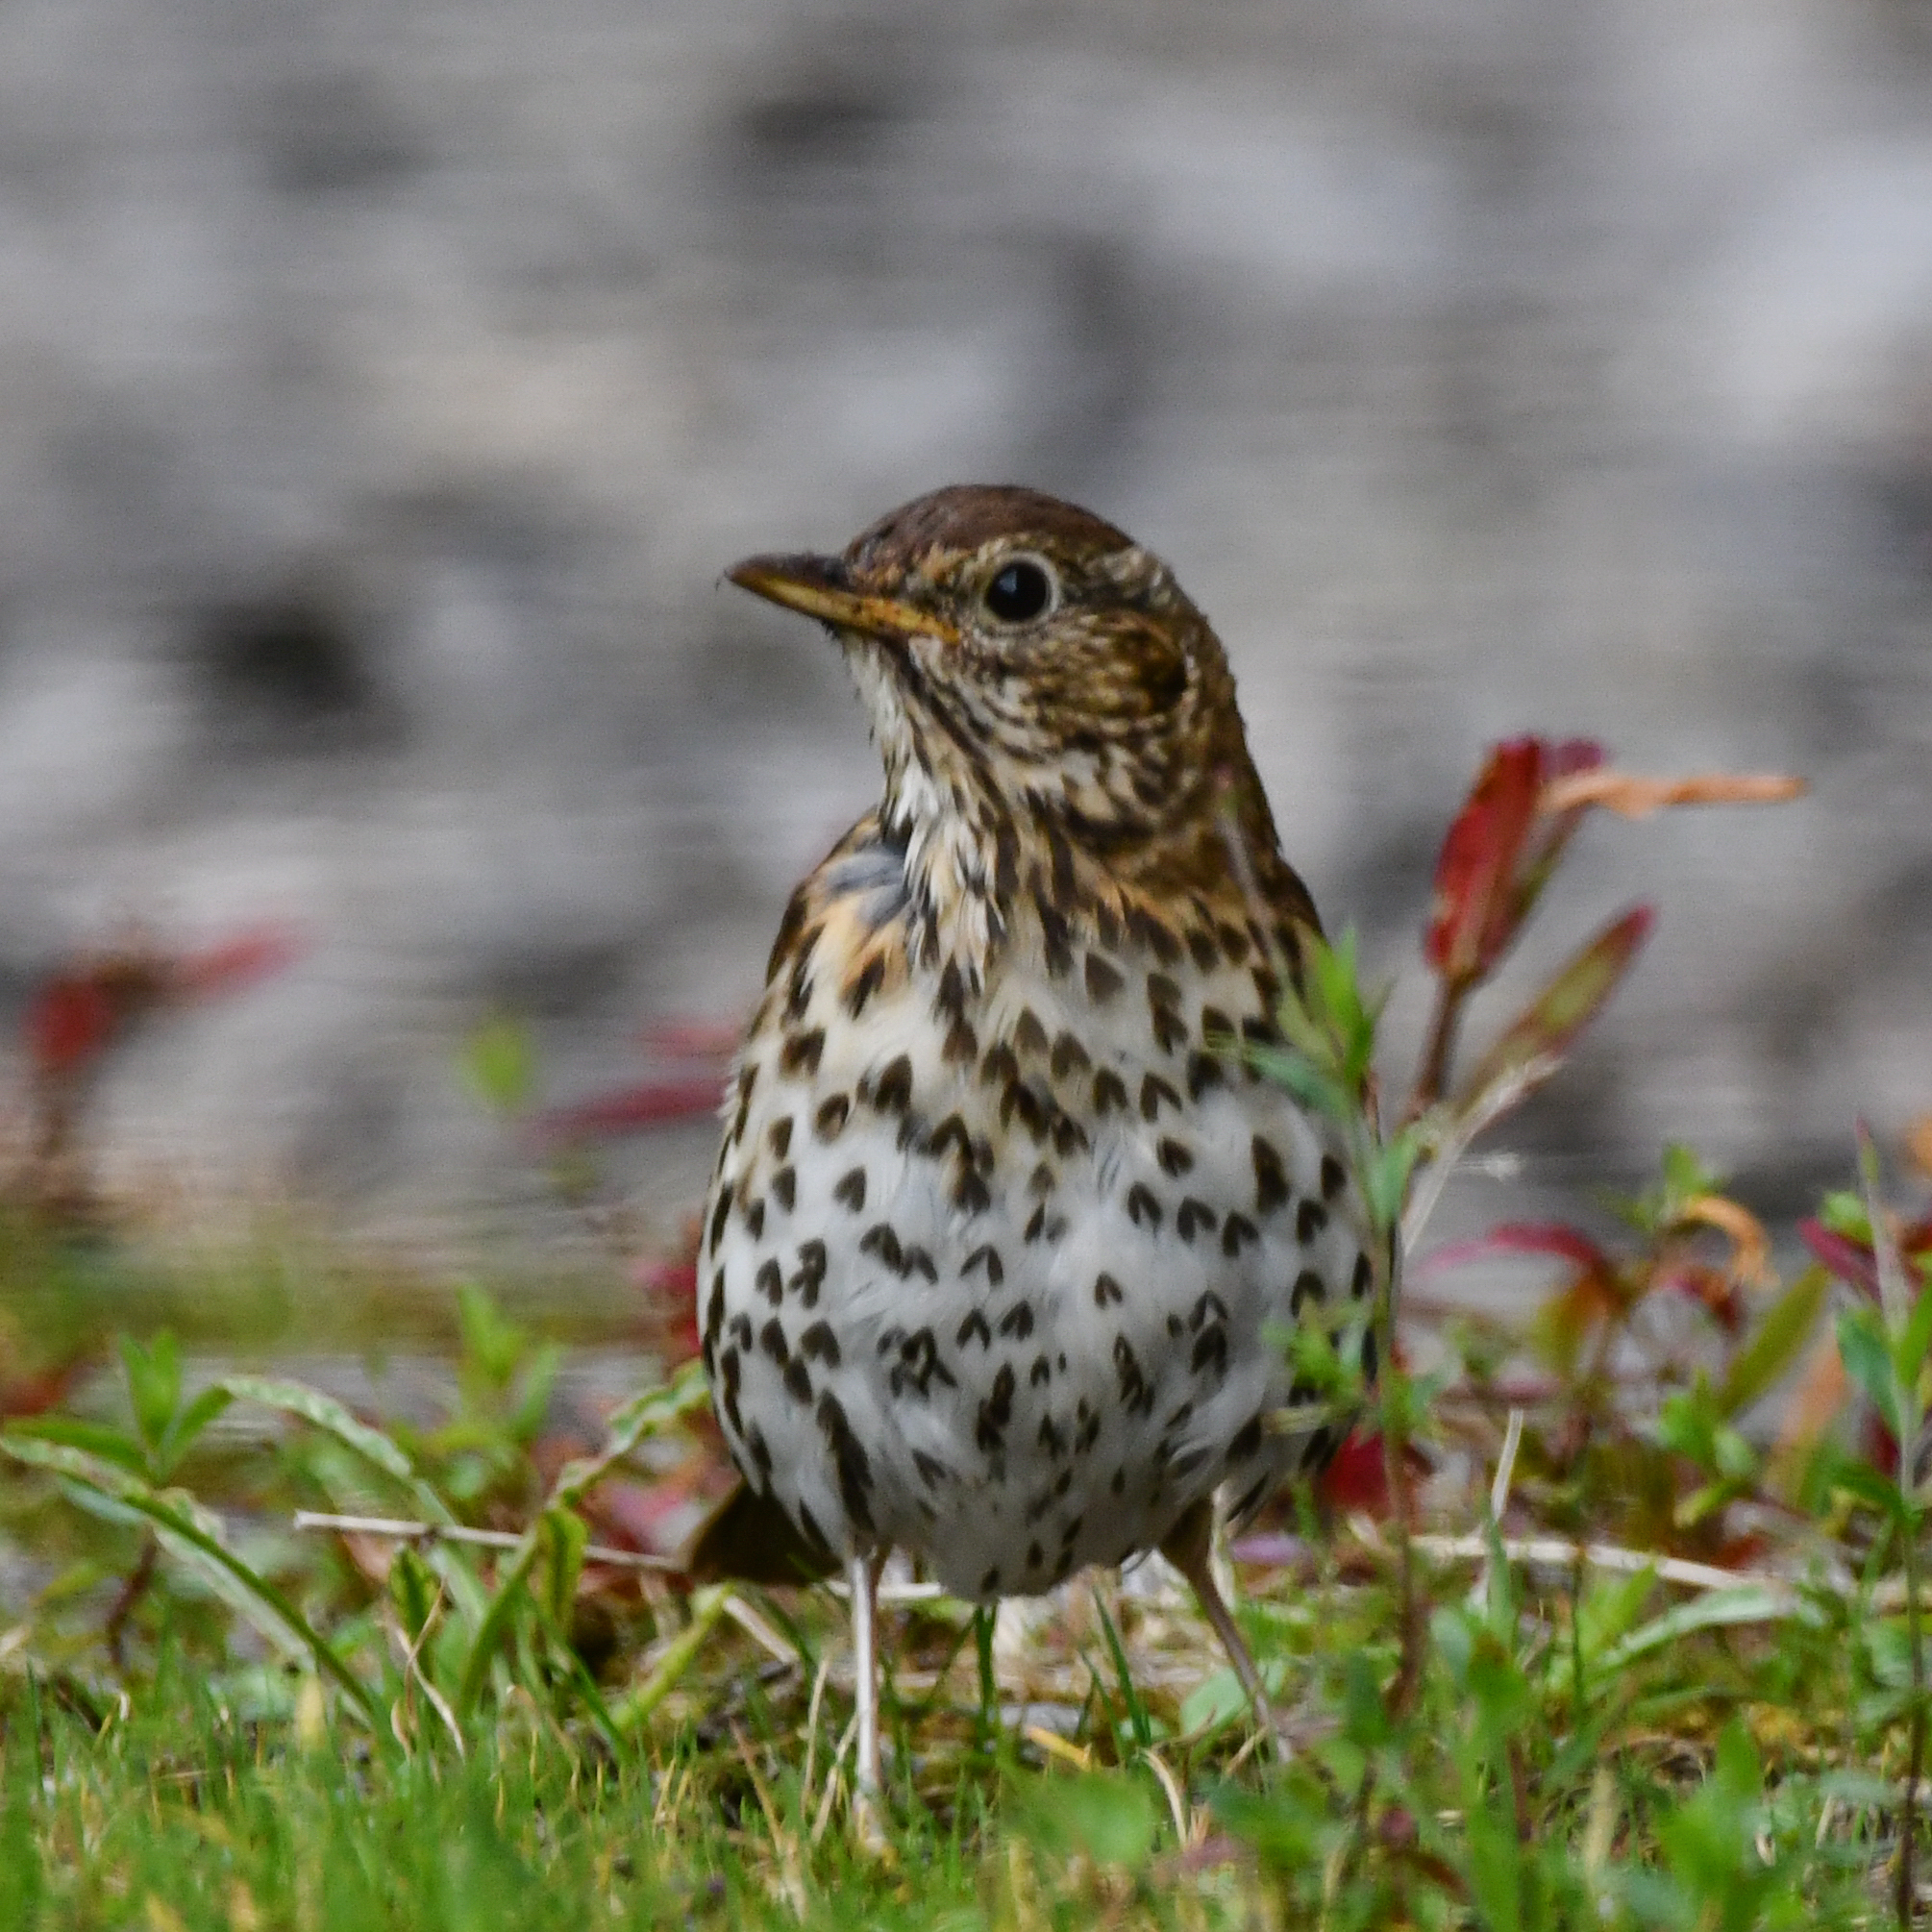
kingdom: Animalia
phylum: Chordata
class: Aves
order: Passeriformes
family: Turdidae
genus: Turdus
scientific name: Turdus philomelos
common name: Song thrush
